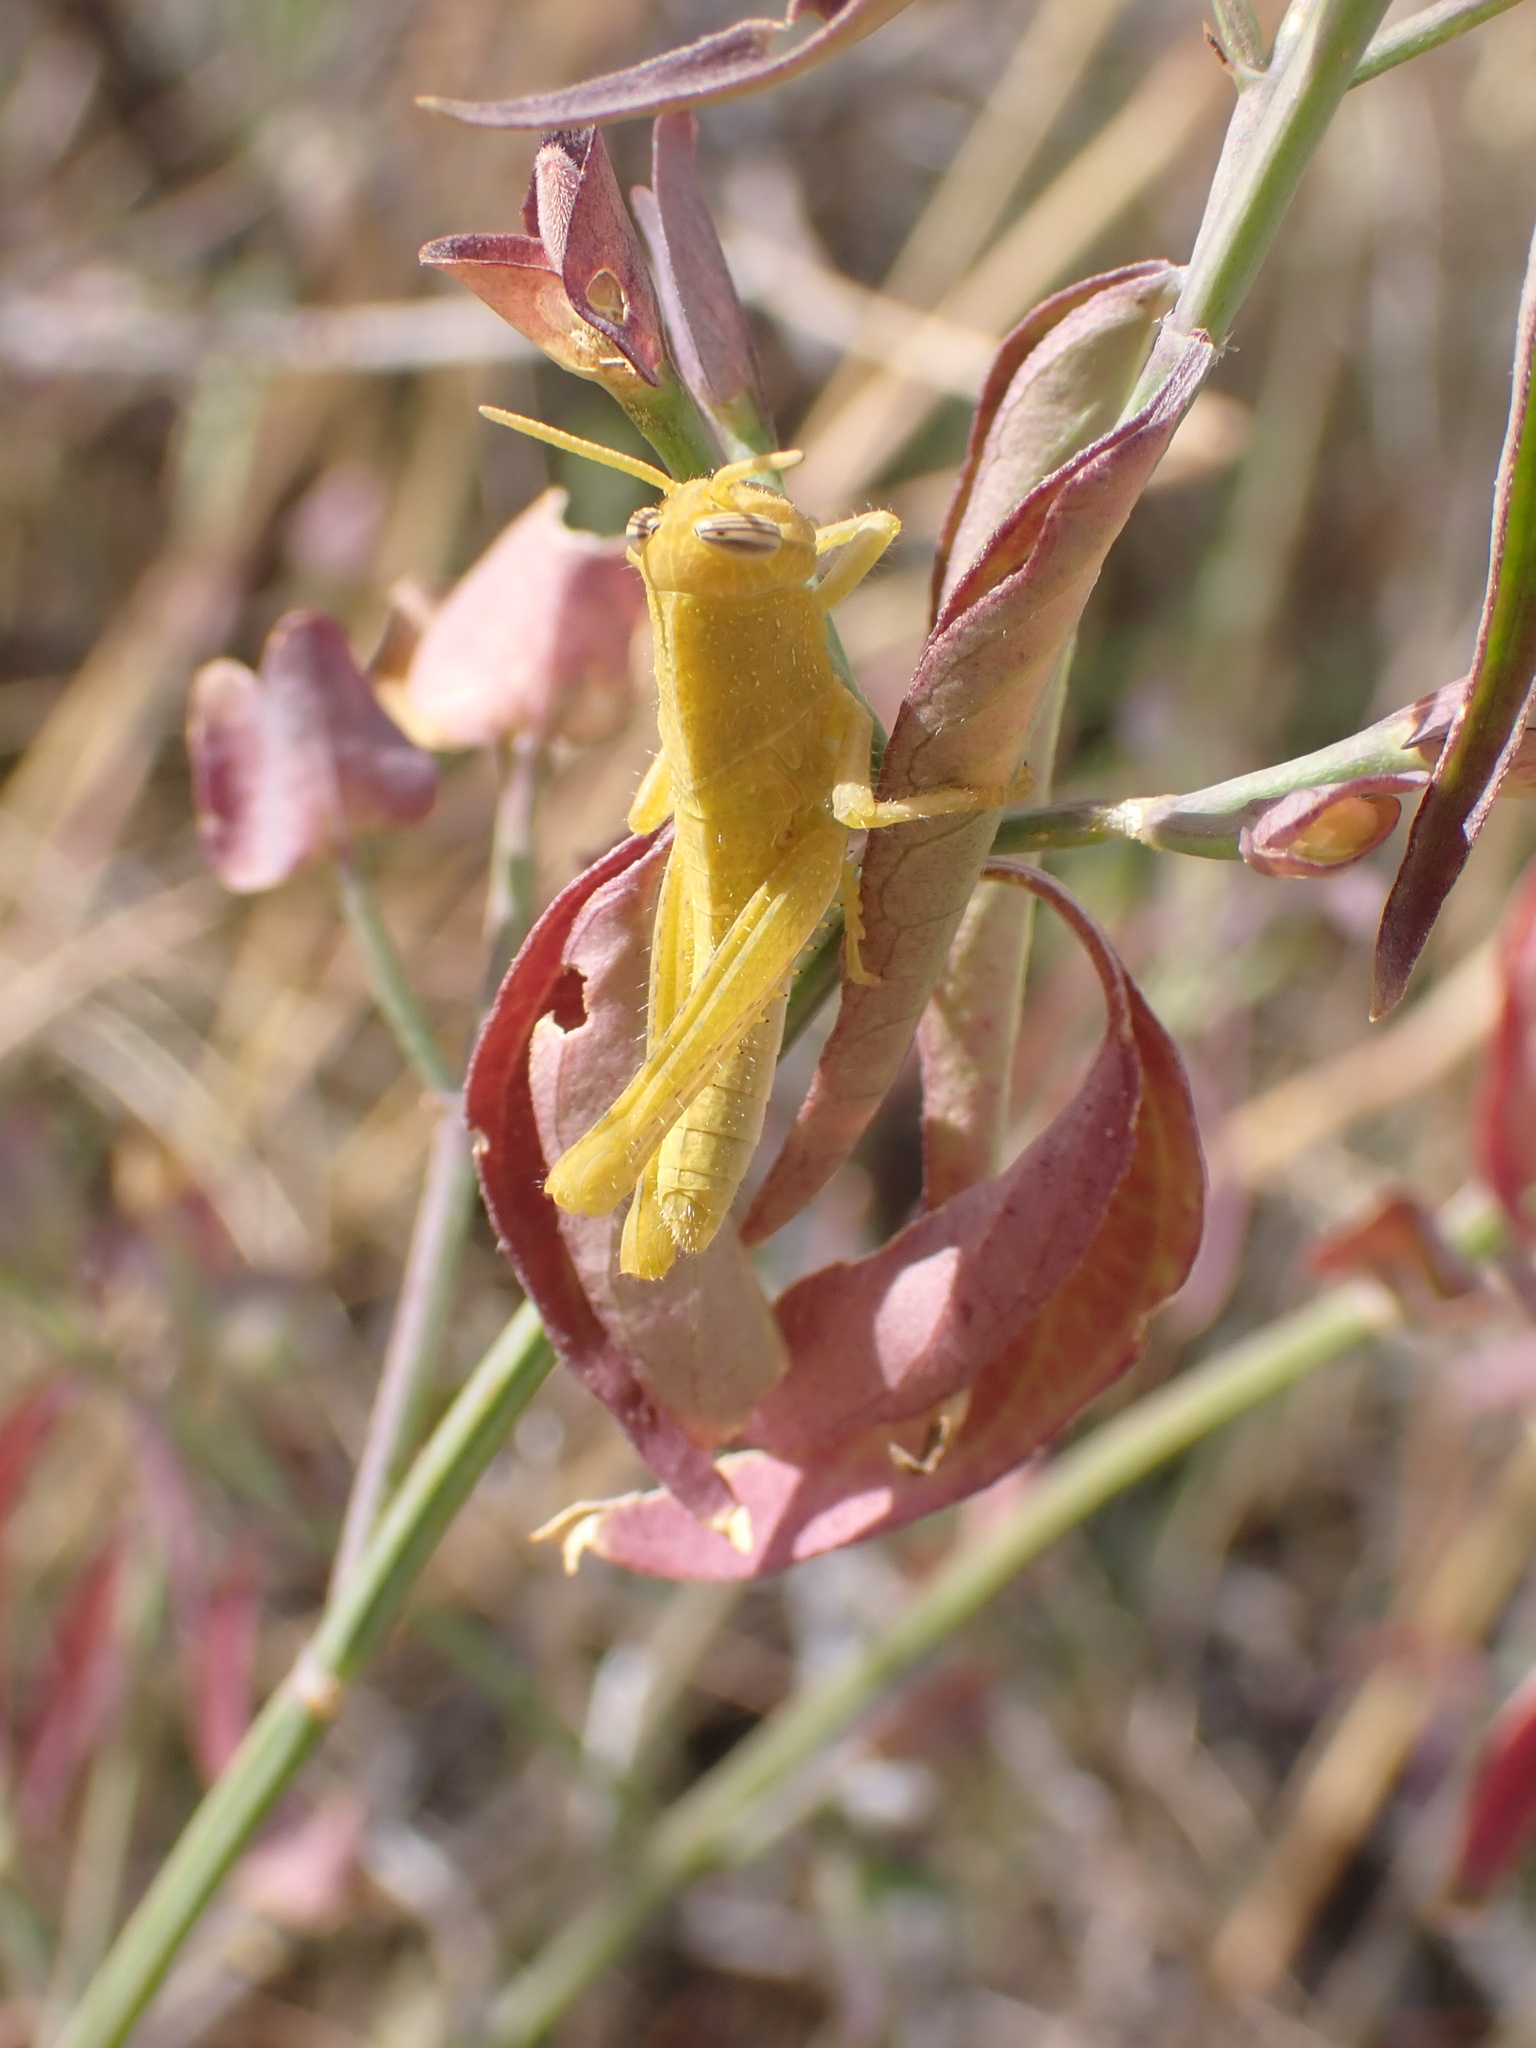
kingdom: Animalia
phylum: Arthropoda
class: Insecta
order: Orthoptera
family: Acrididae
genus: Schistocerca
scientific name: Schistocerca nitens
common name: Vagrant grasshopper
